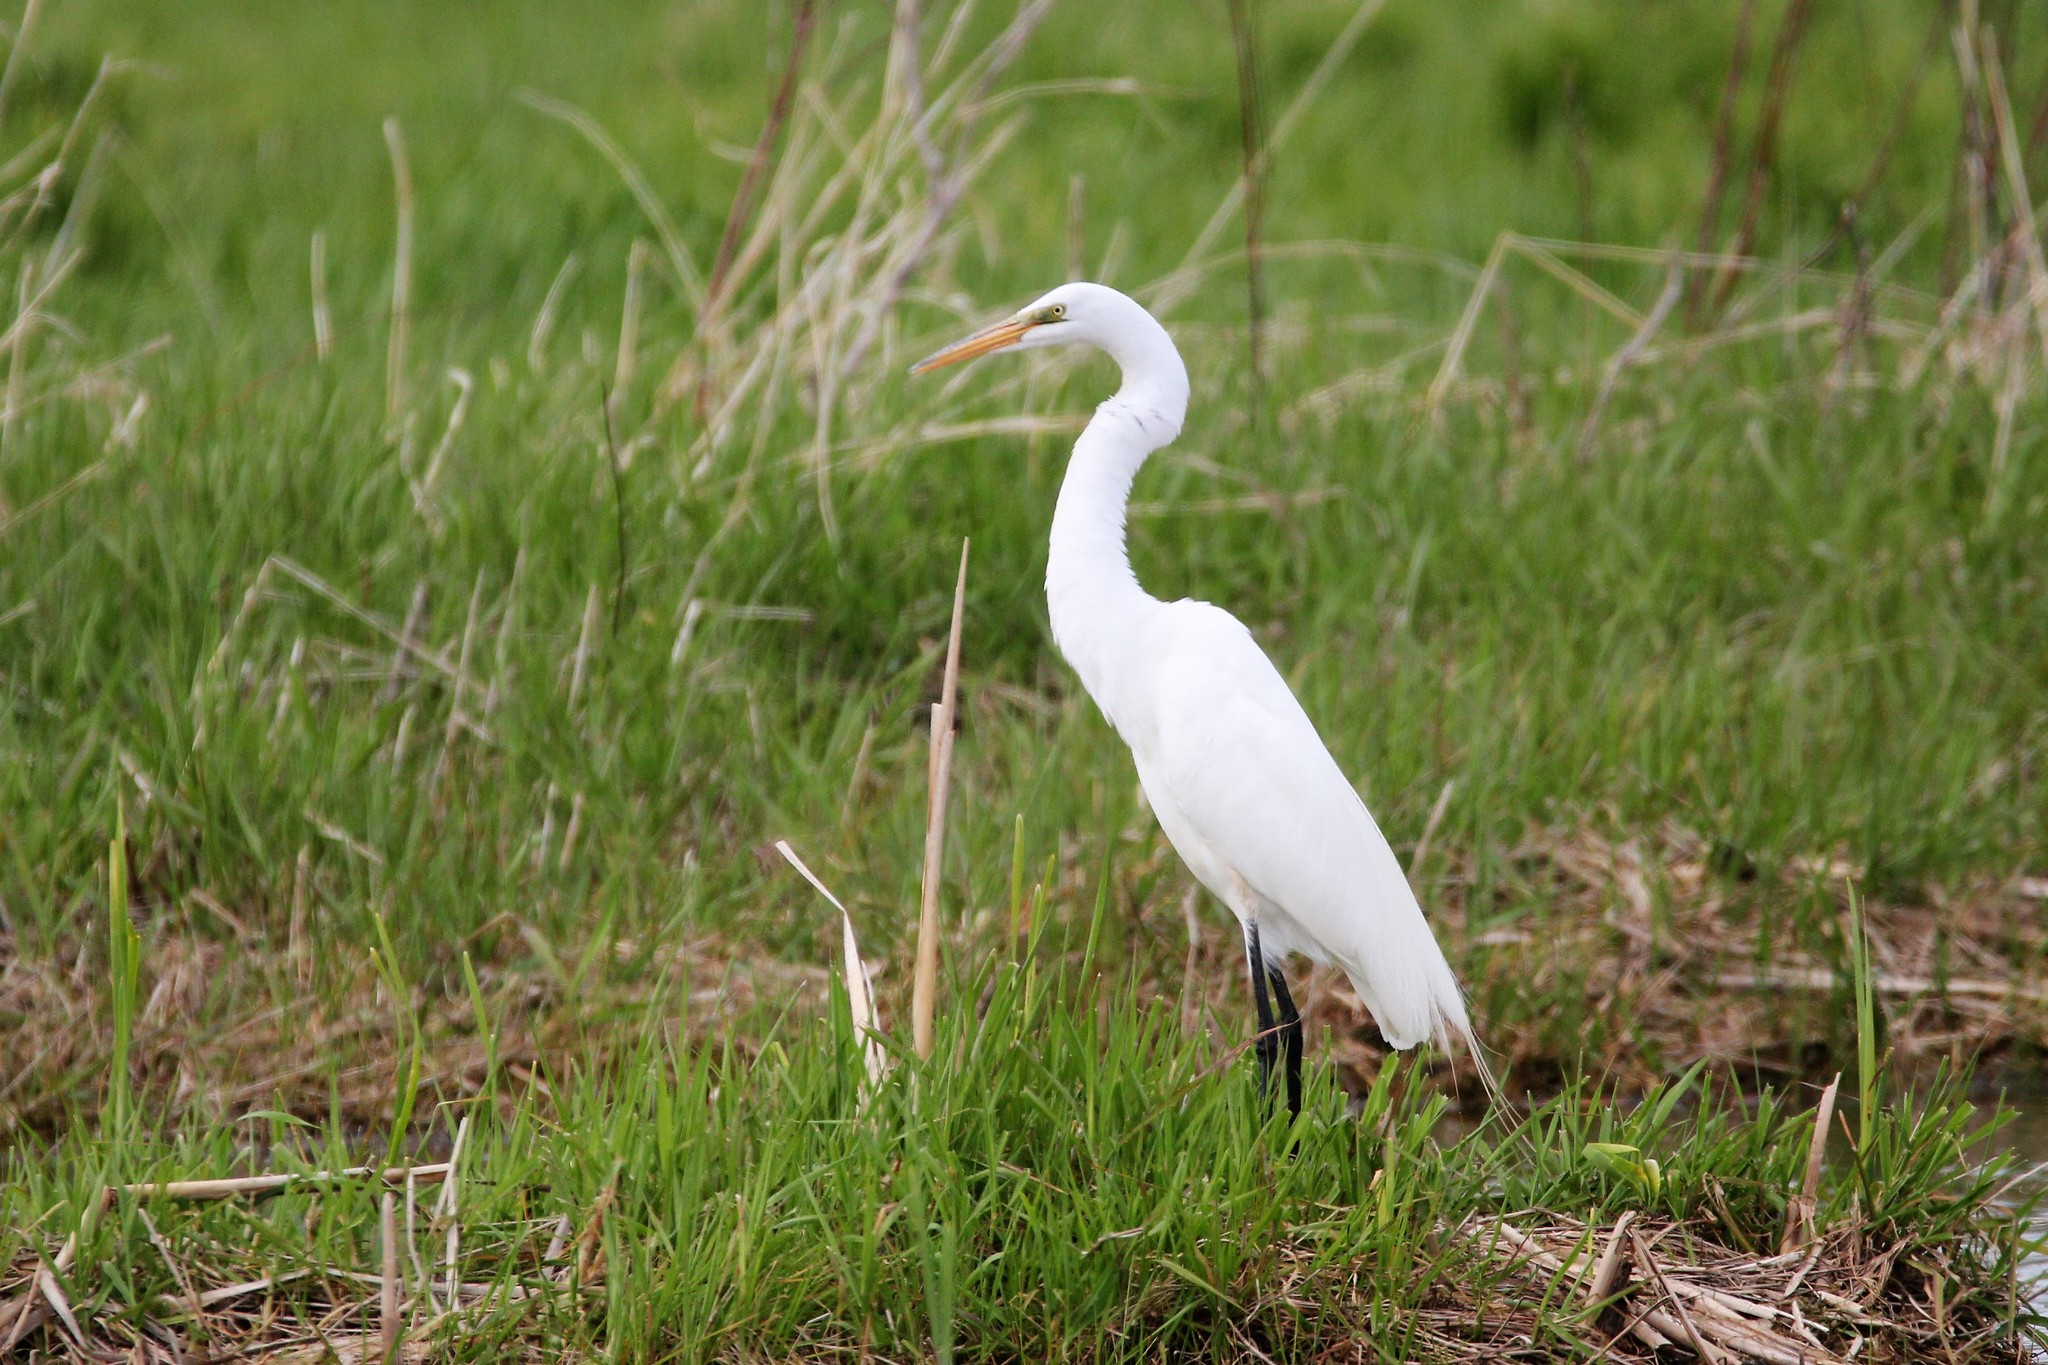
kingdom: Animalia
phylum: Chordata
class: Aves
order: Pelecaniformes
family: Ardeidae
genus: Ardea
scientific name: Ardea alba
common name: Great egret
